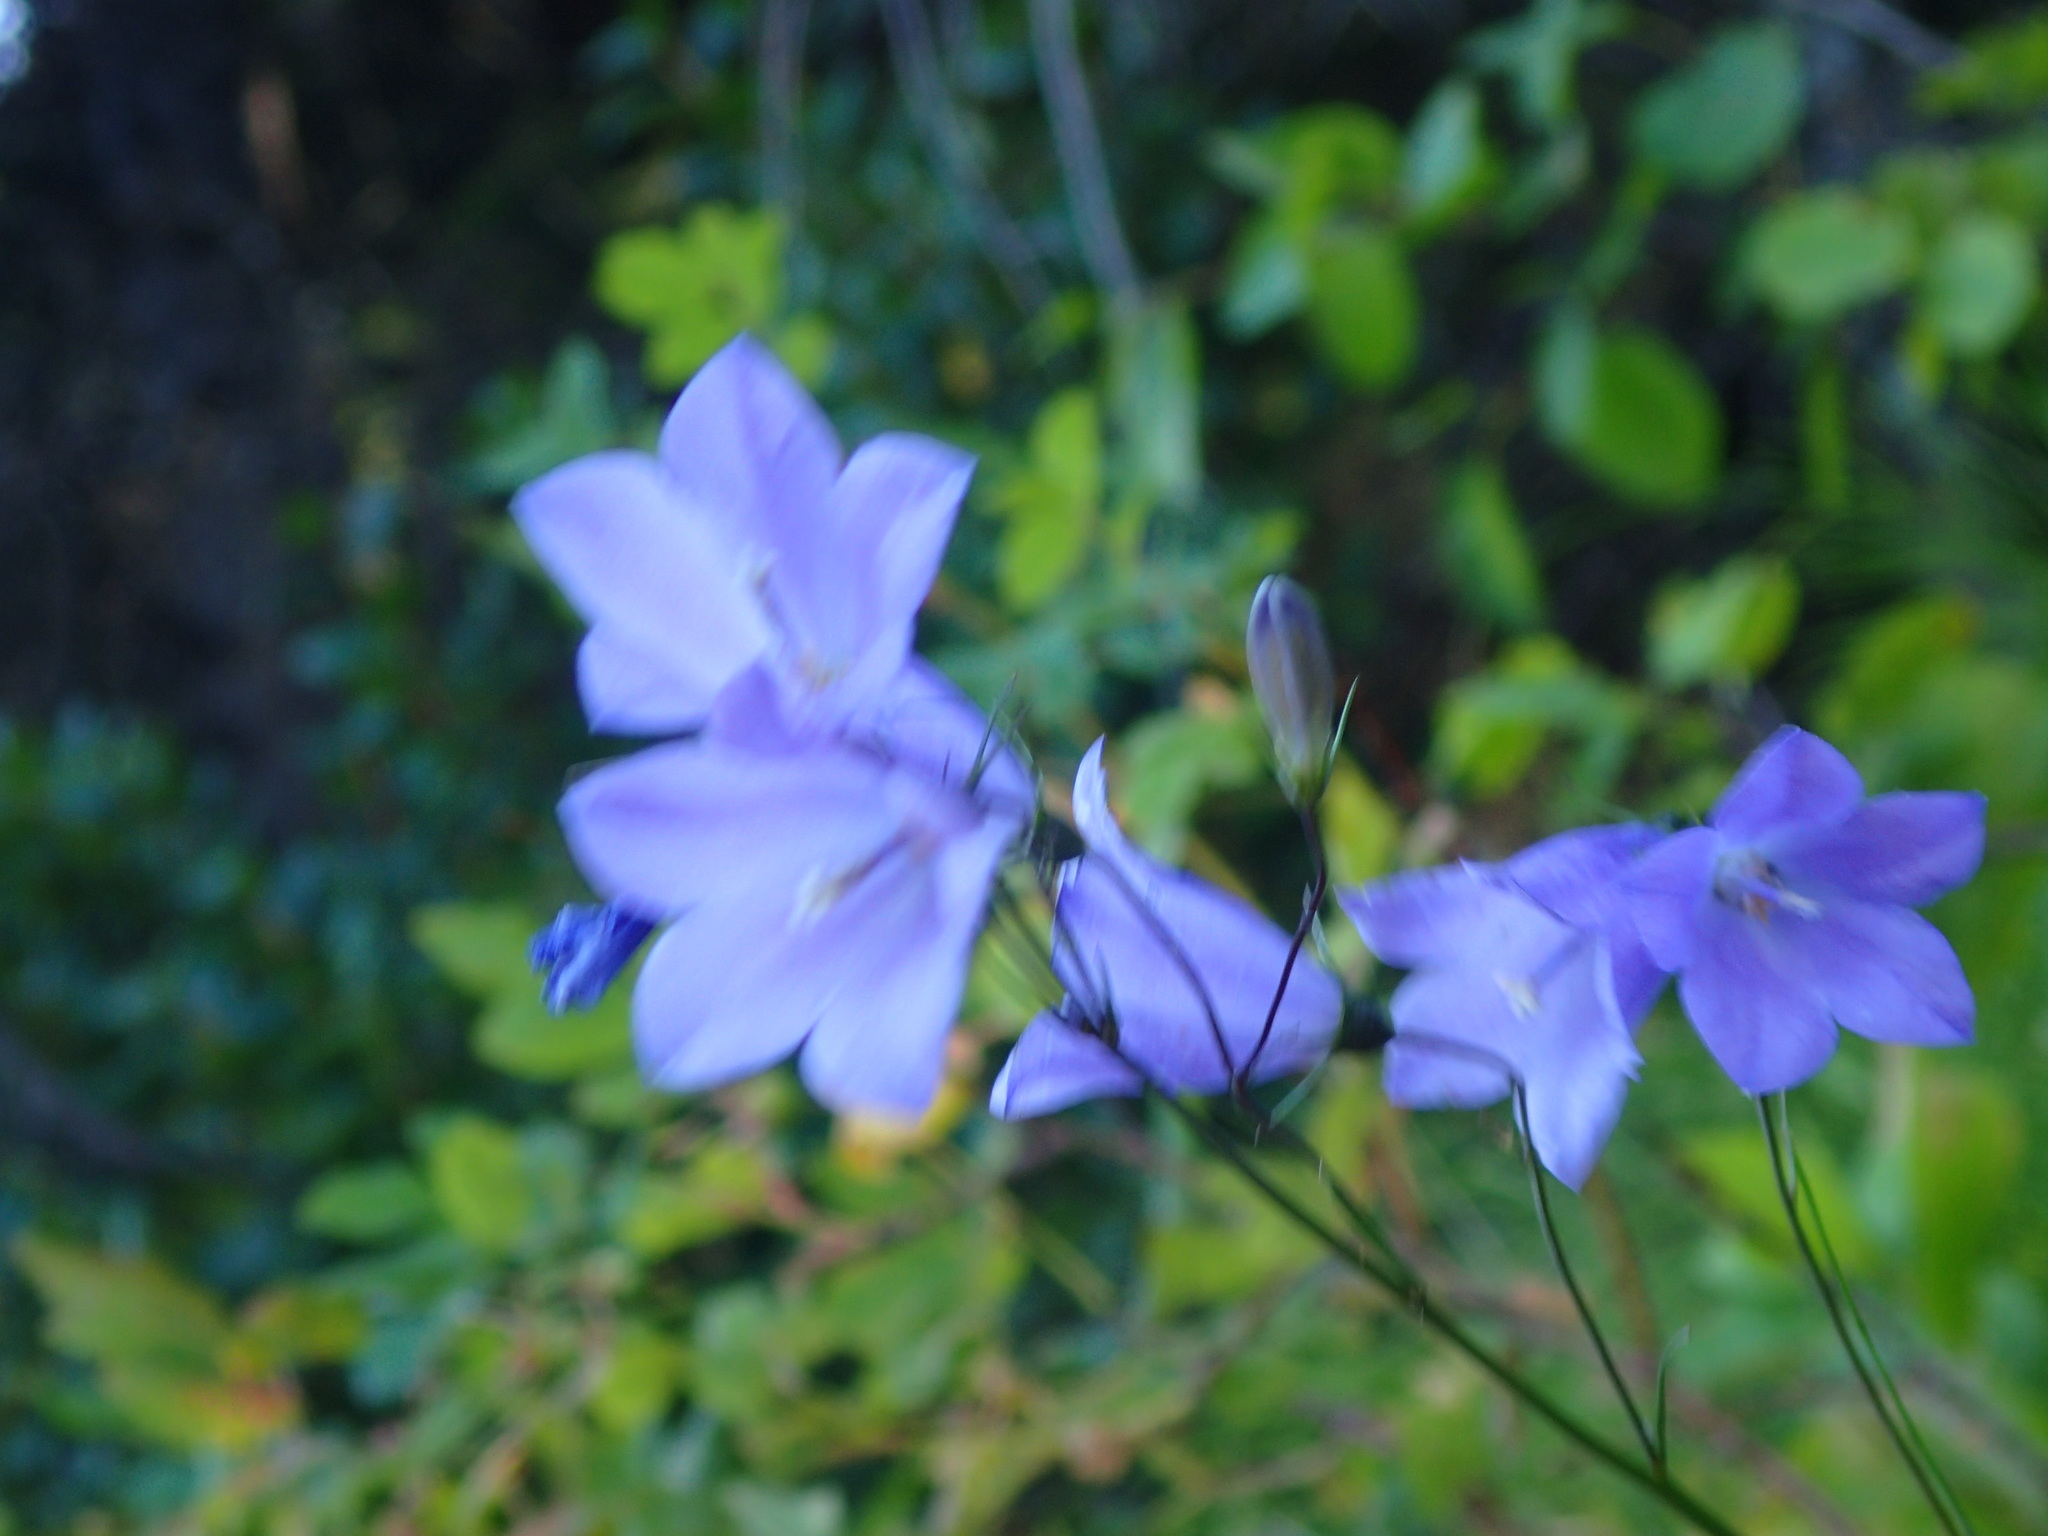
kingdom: Plantae
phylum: Tracheophyta
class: Magnoliopsida
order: Asterales
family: Campanulaceae
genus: Campanula
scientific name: Campanula alaskana
